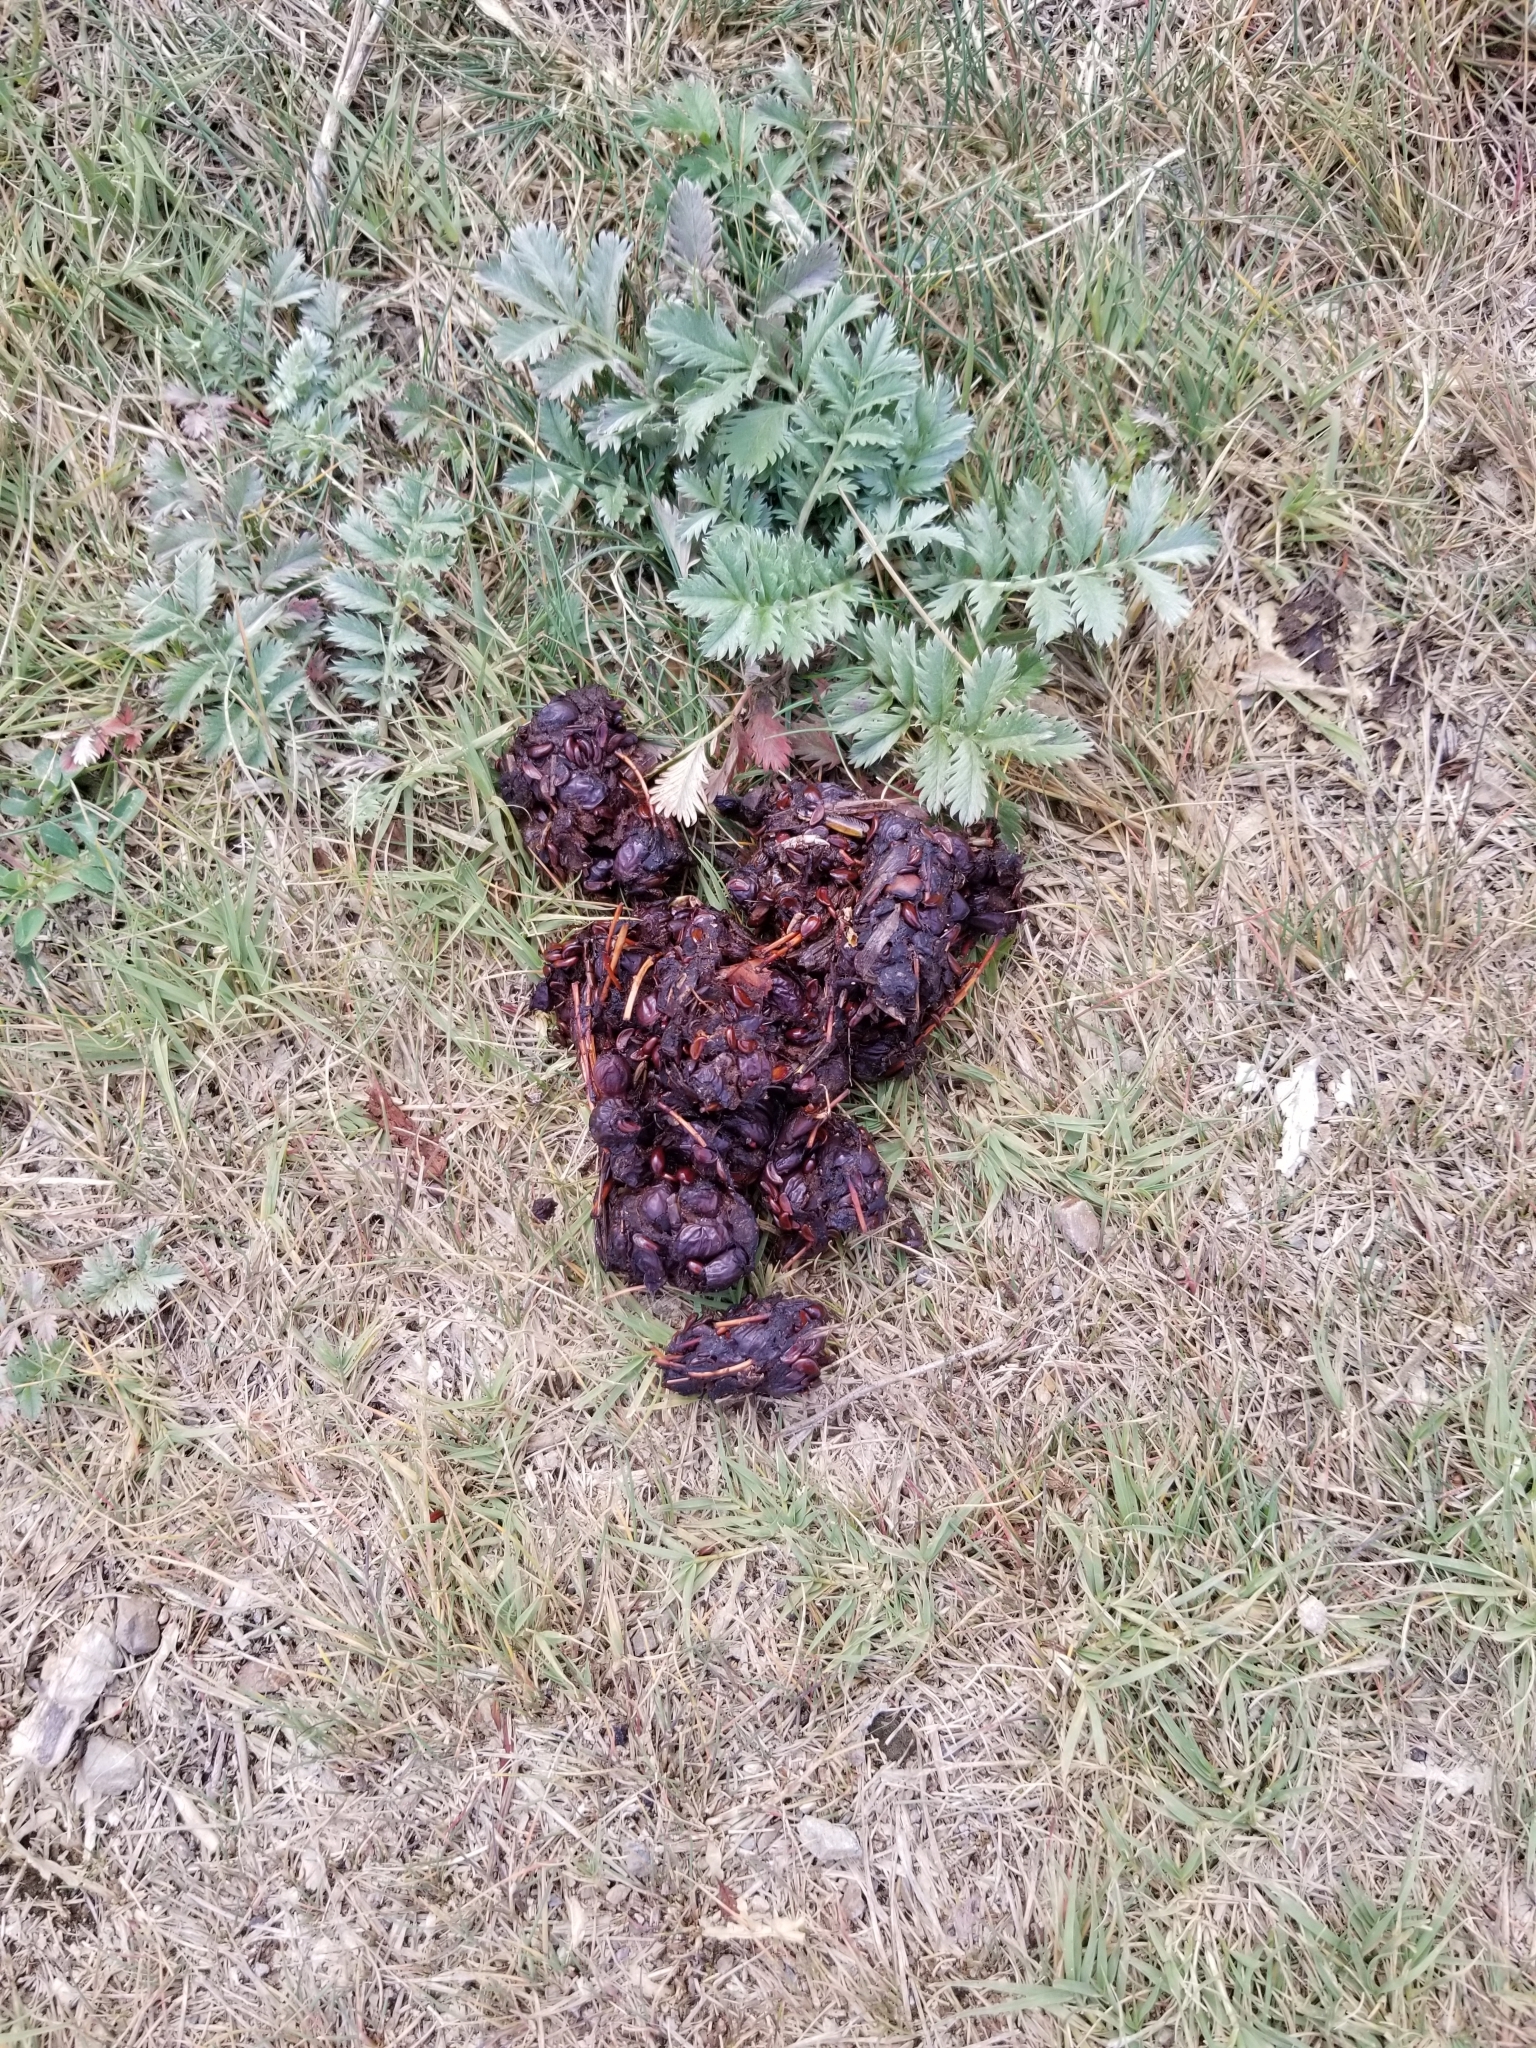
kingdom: Animalia
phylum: Chordata
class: Mammalia
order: Carnivora
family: Ursidae
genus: Ursus
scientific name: Ursus americanus
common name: American black bear
